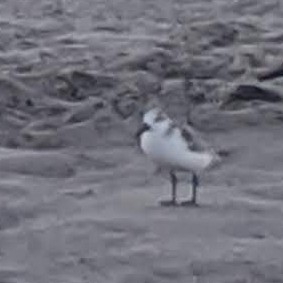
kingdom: Animalia
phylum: Chordata
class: Aves
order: Charadriiformes
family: Scolopacidae
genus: Calidris
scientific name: Calidris alba
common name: Sanderling
